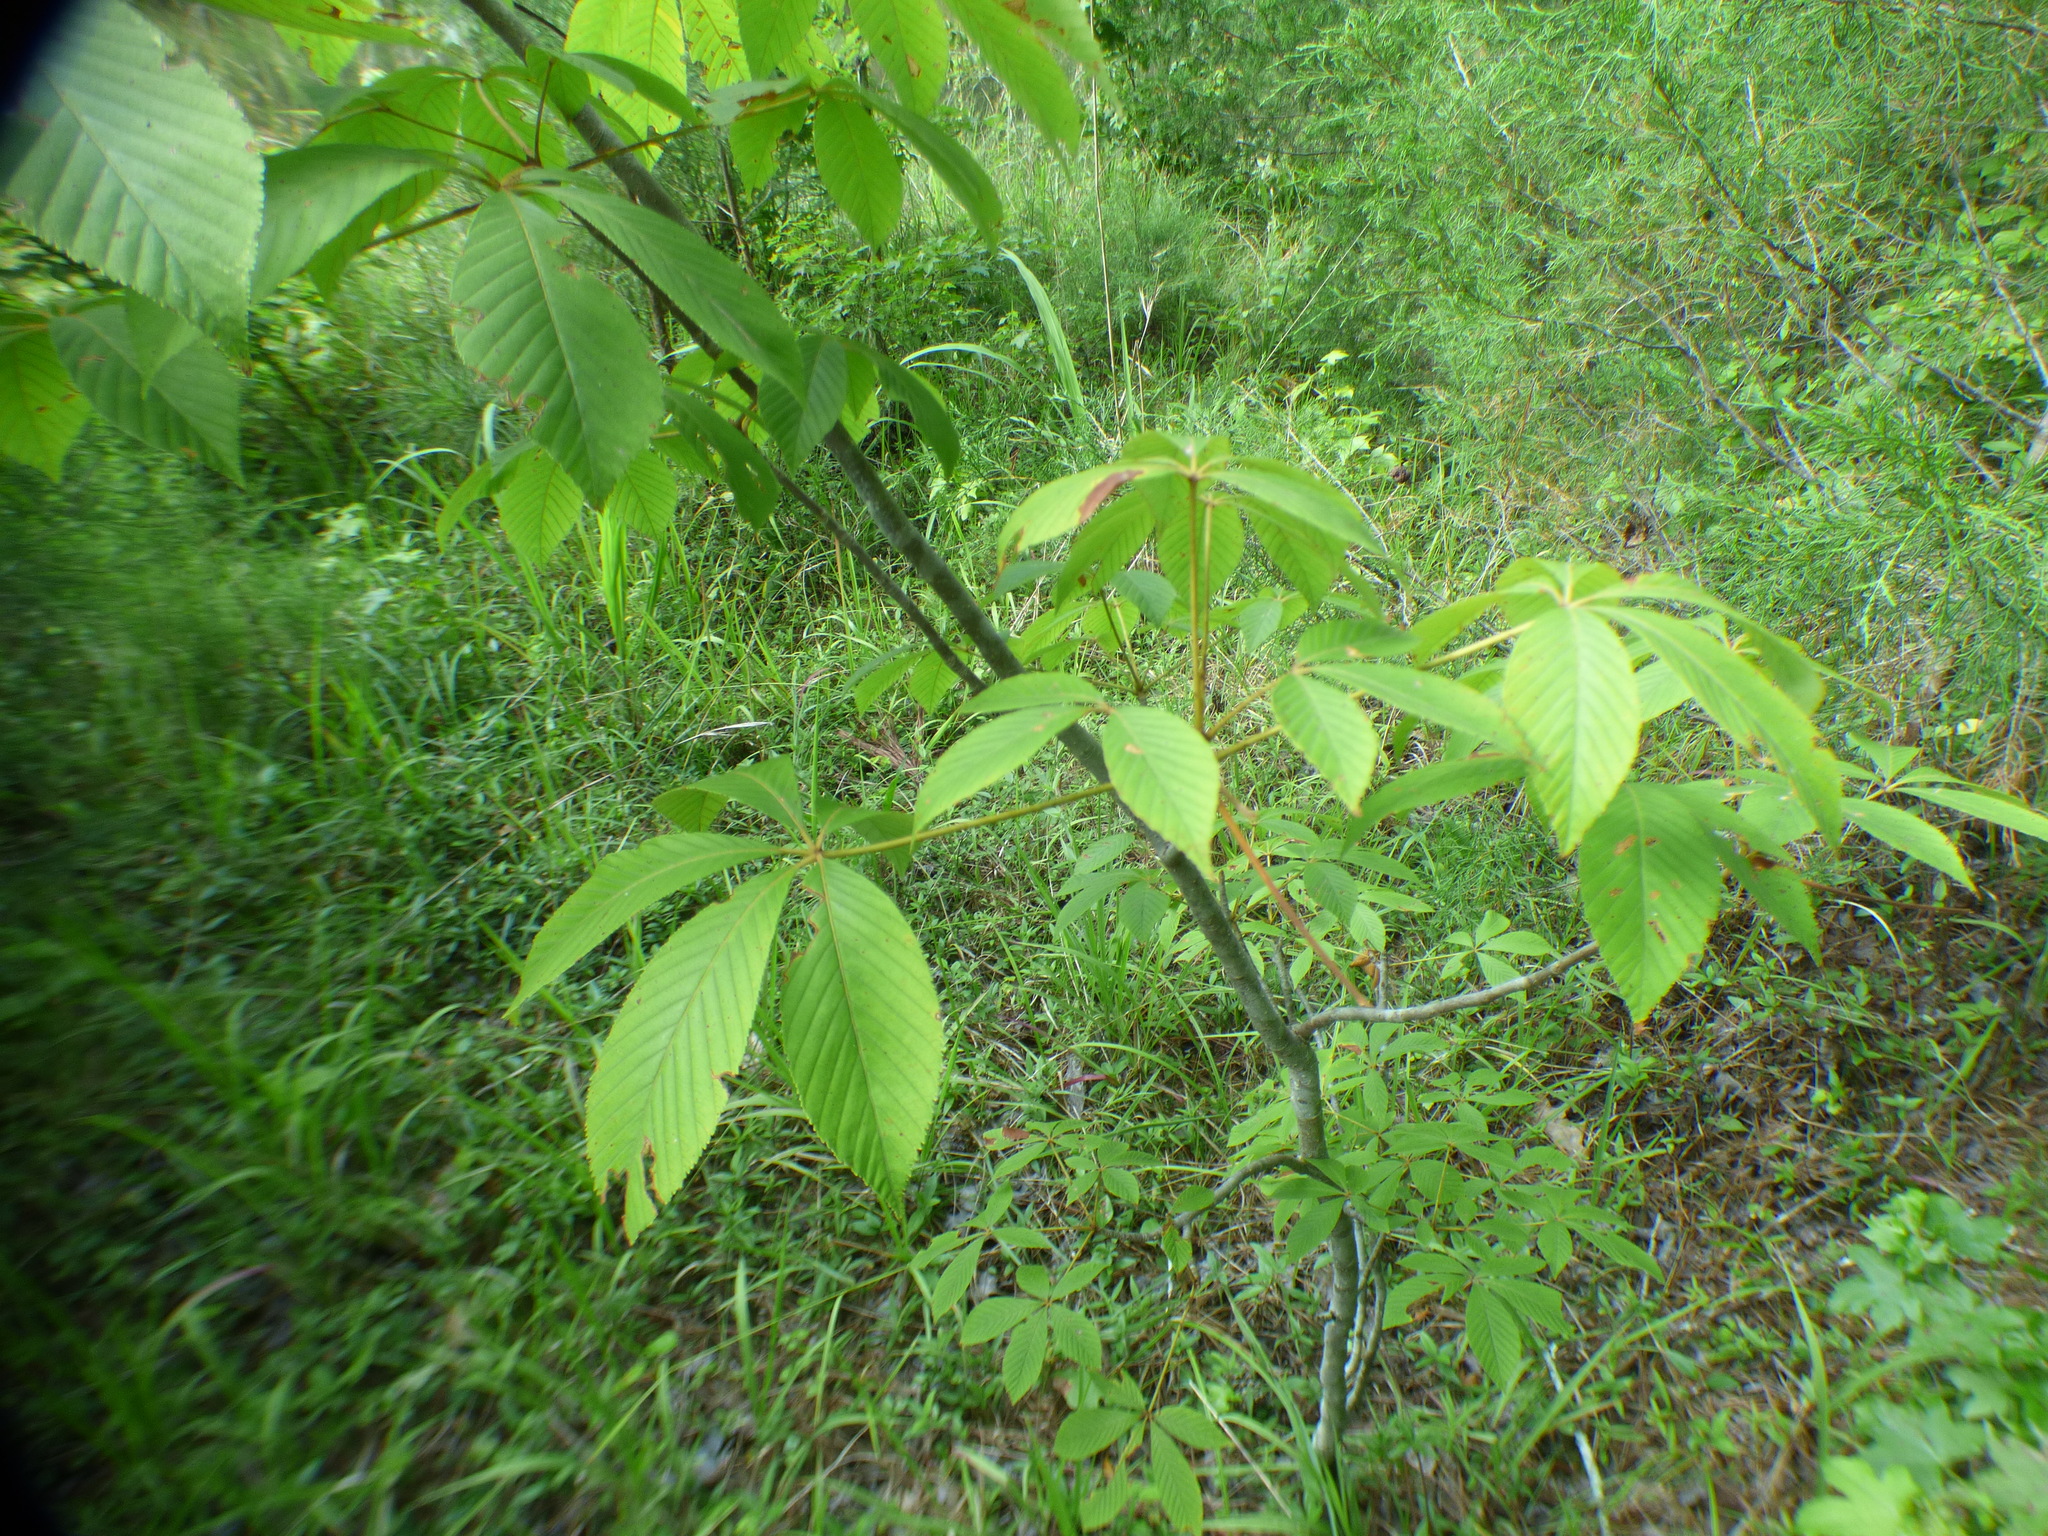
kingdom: Plantae
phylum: Tracheophyta
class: Magnoliopsida
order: Sapindales
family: Sapindaceae
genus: Aesculus
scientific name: Aesculus sylvatica
